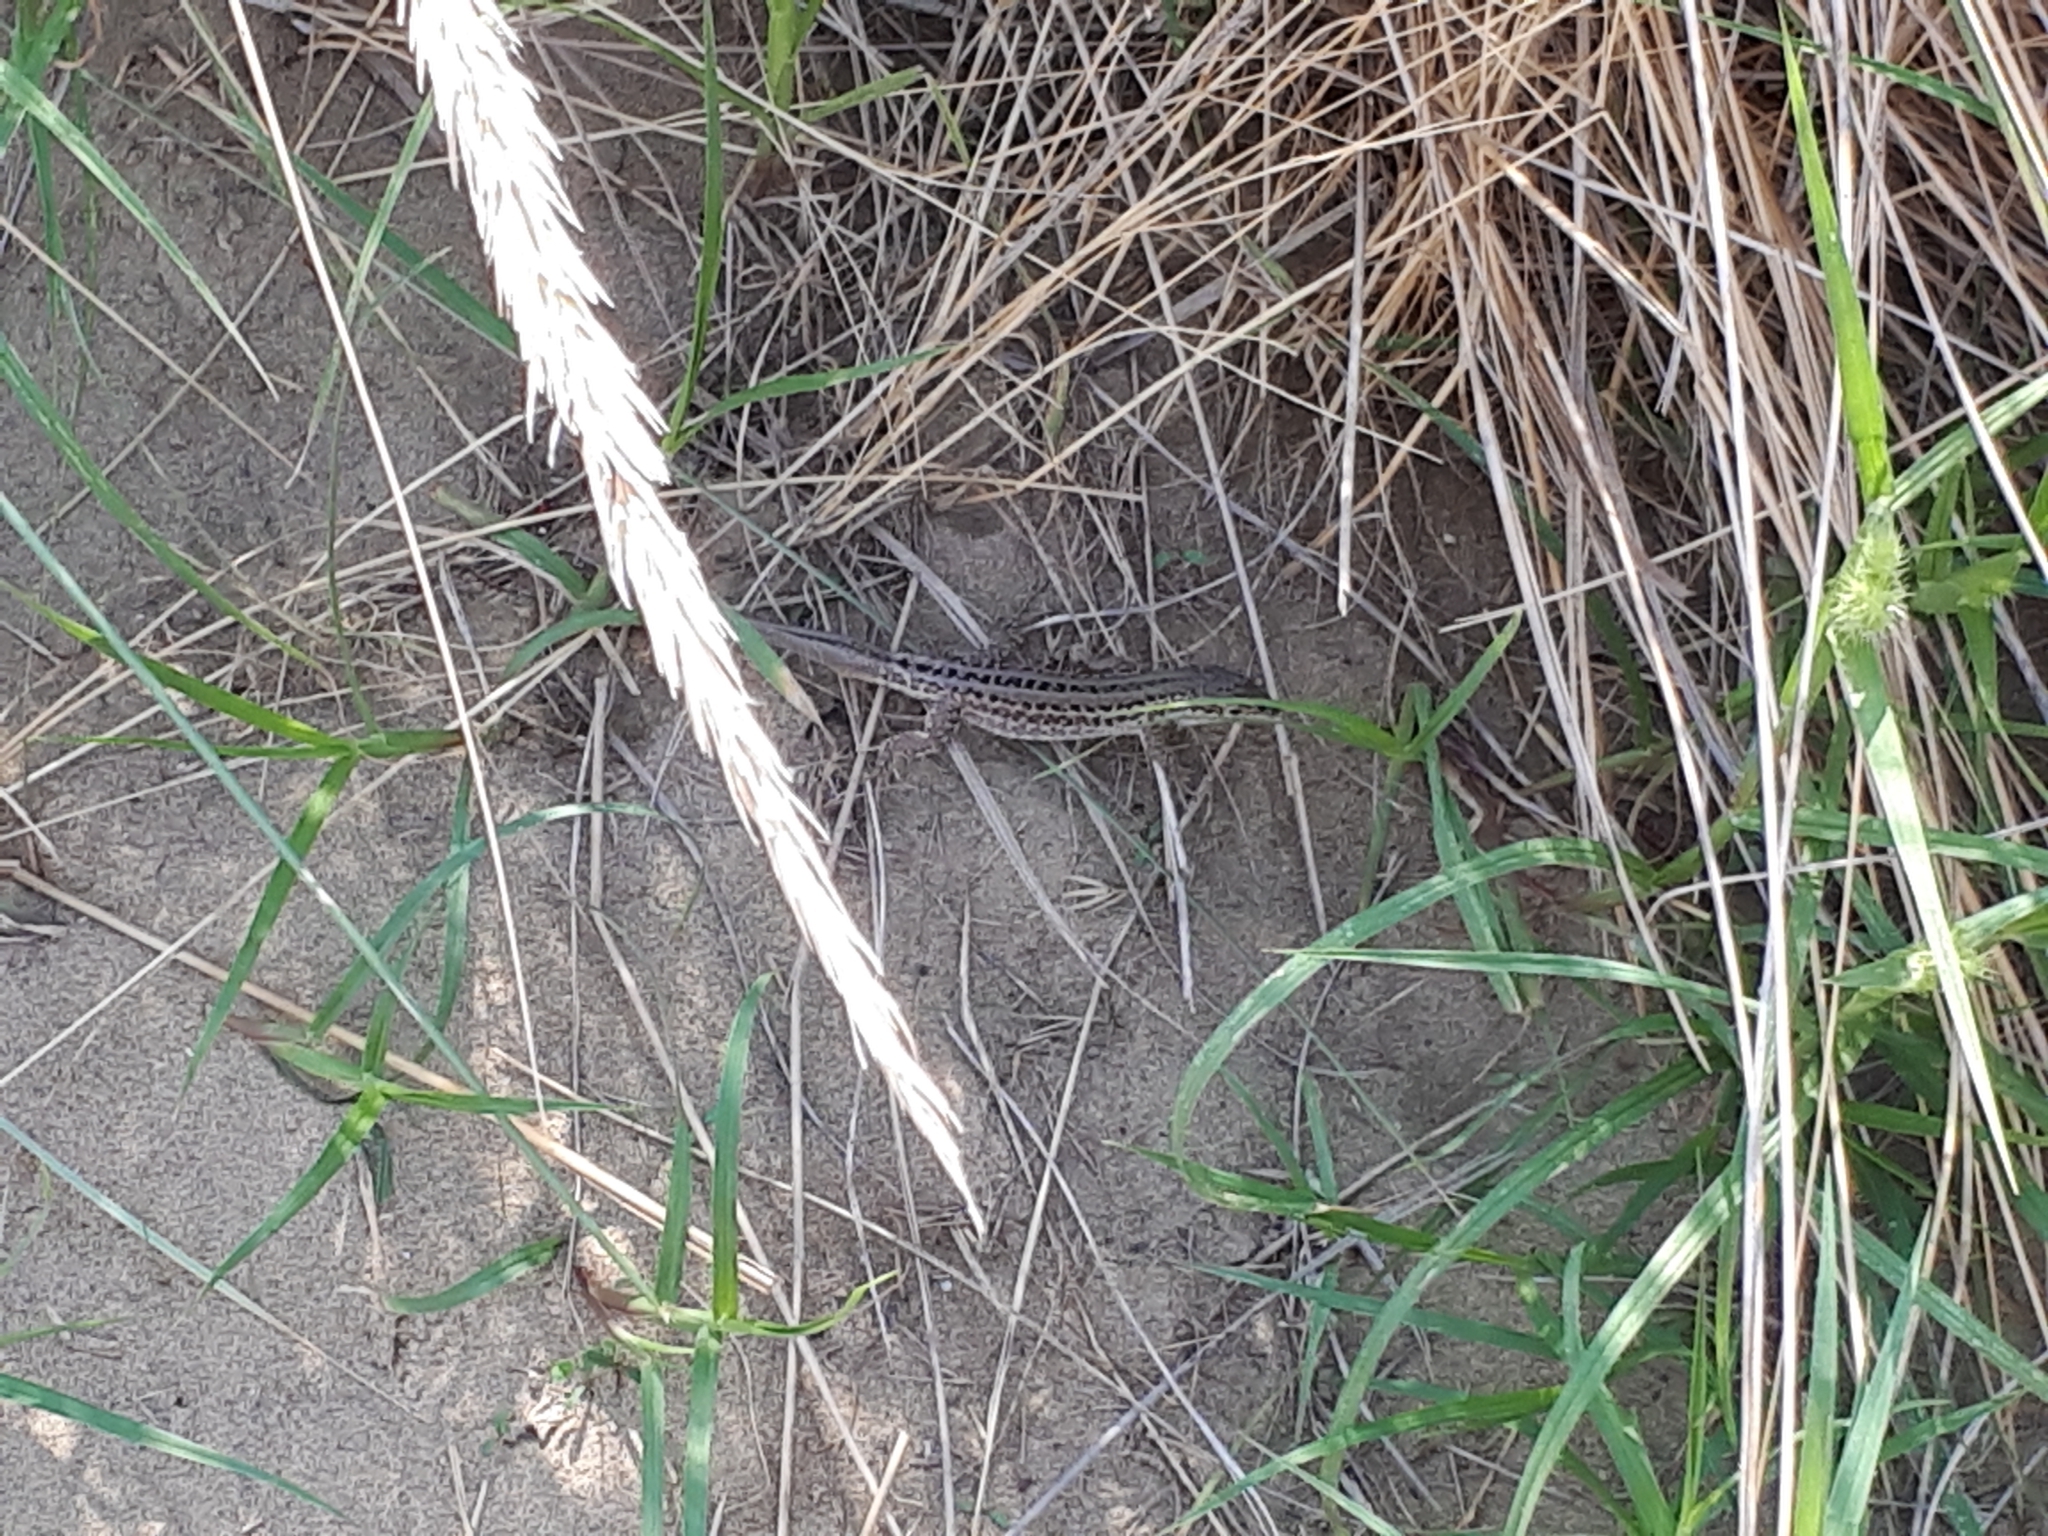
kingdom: Animalia
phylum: Chordata
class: Squamata
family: Lacertidae
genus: Podarcis
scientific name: Podarcis siculus
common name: Italian wall lizard
